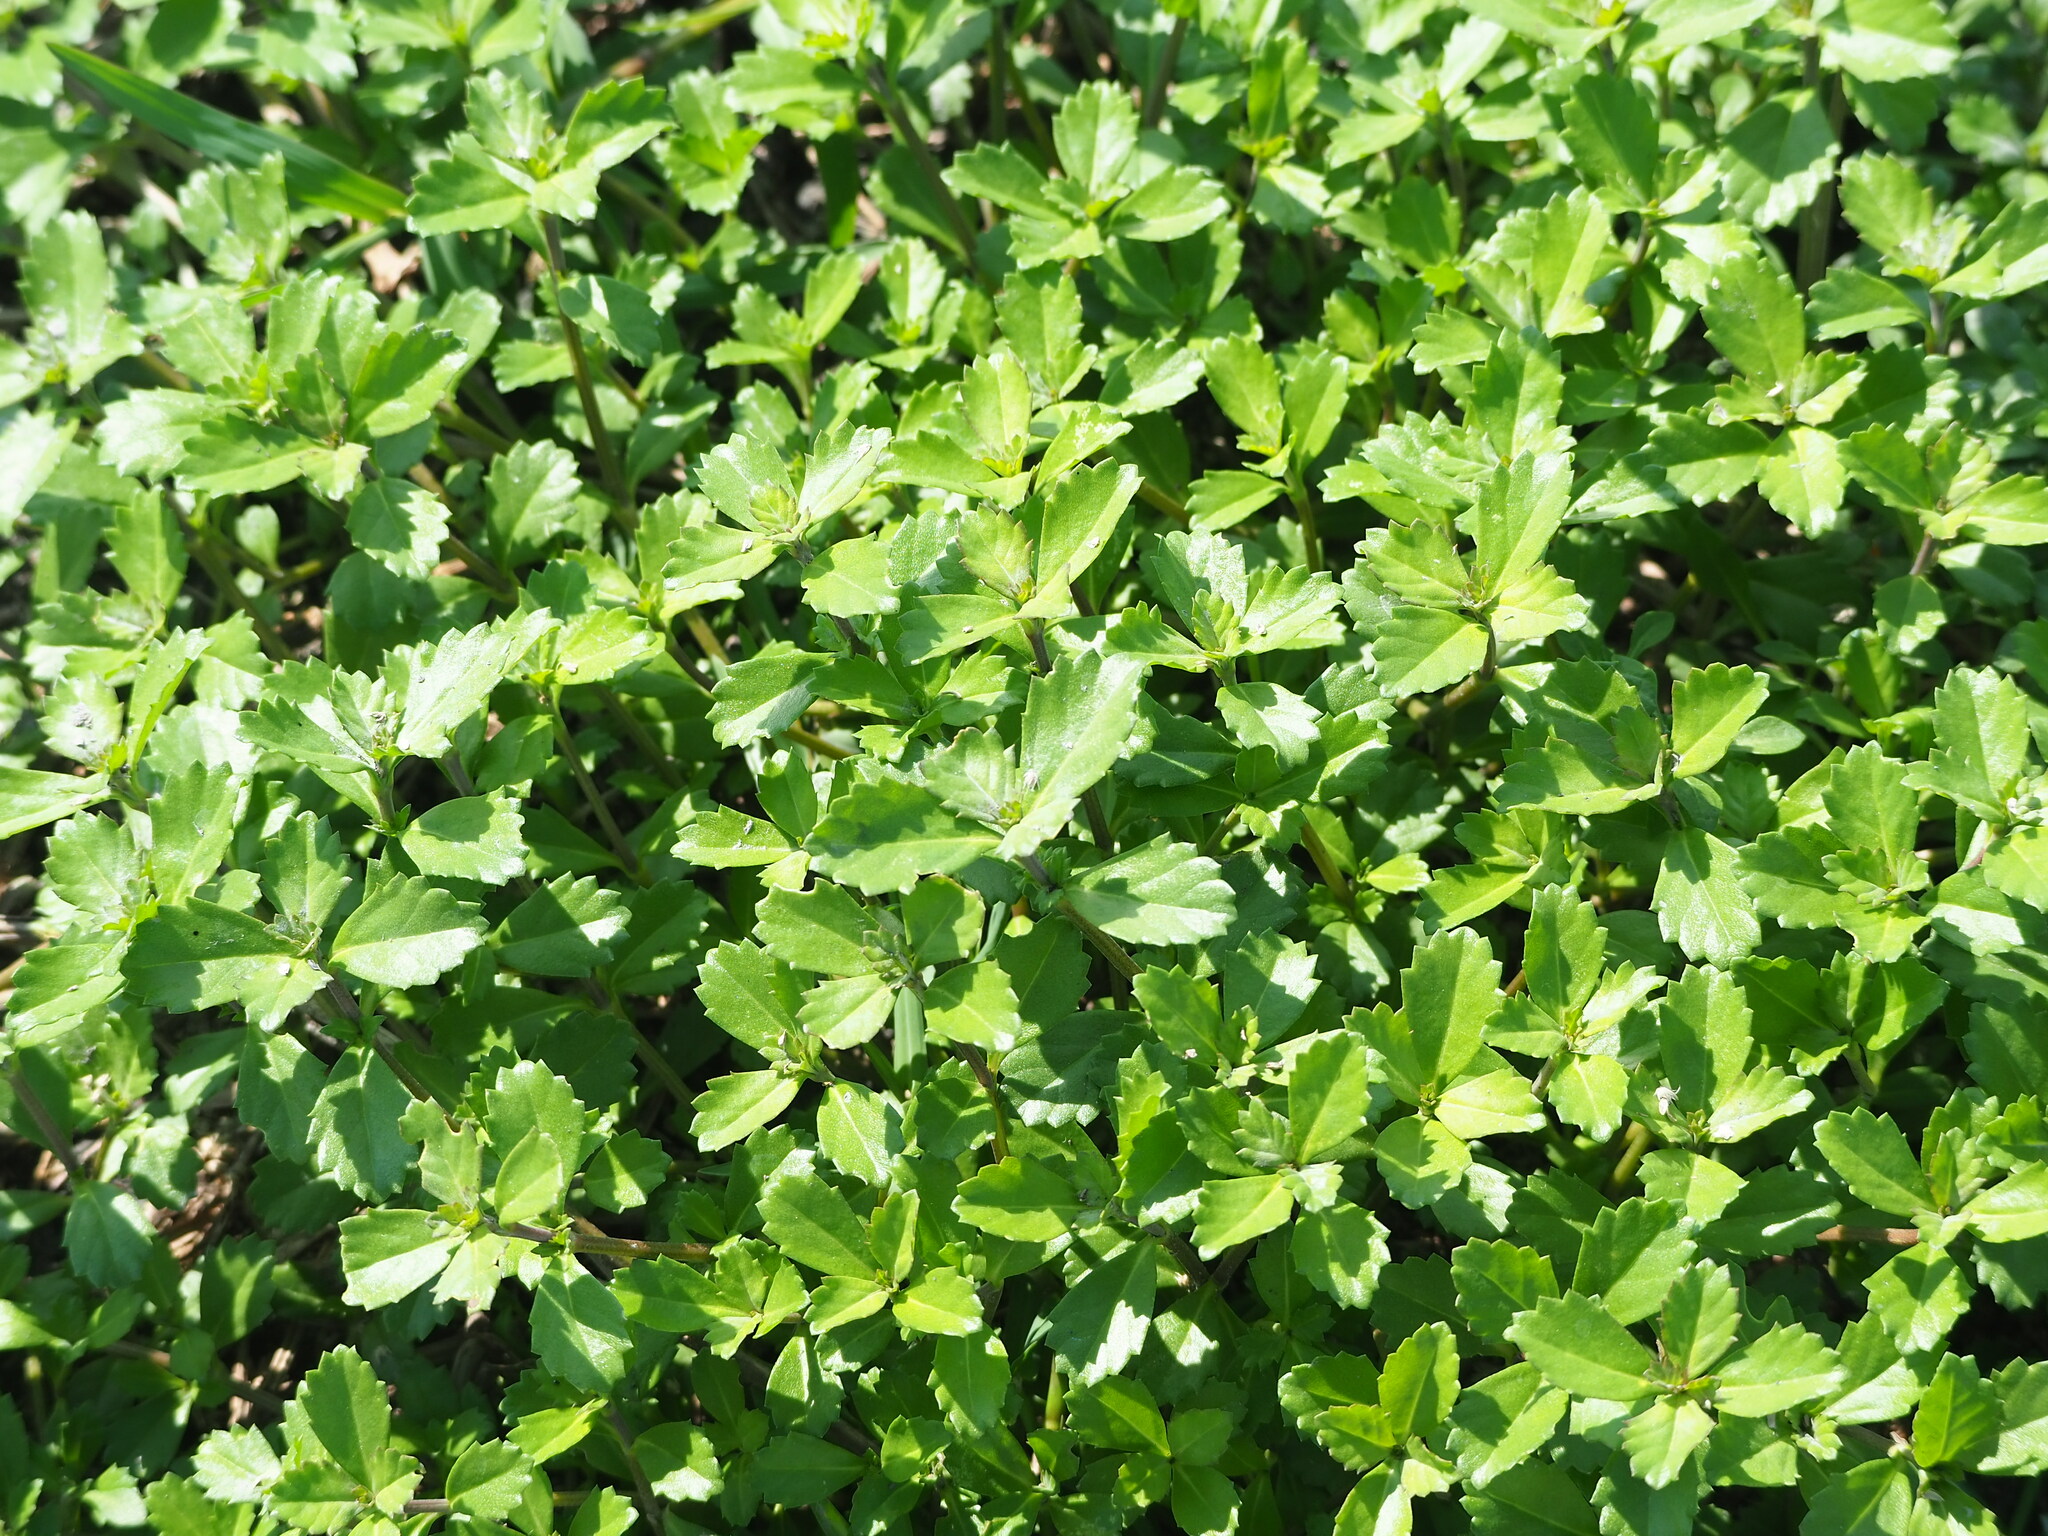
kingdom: Plantae
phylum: Tracheophyta
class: Magnoliopsida
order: Lamiales
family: Verbenaceae
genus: Phyla
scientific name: Phyla nodiflora
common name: Frogfruit
